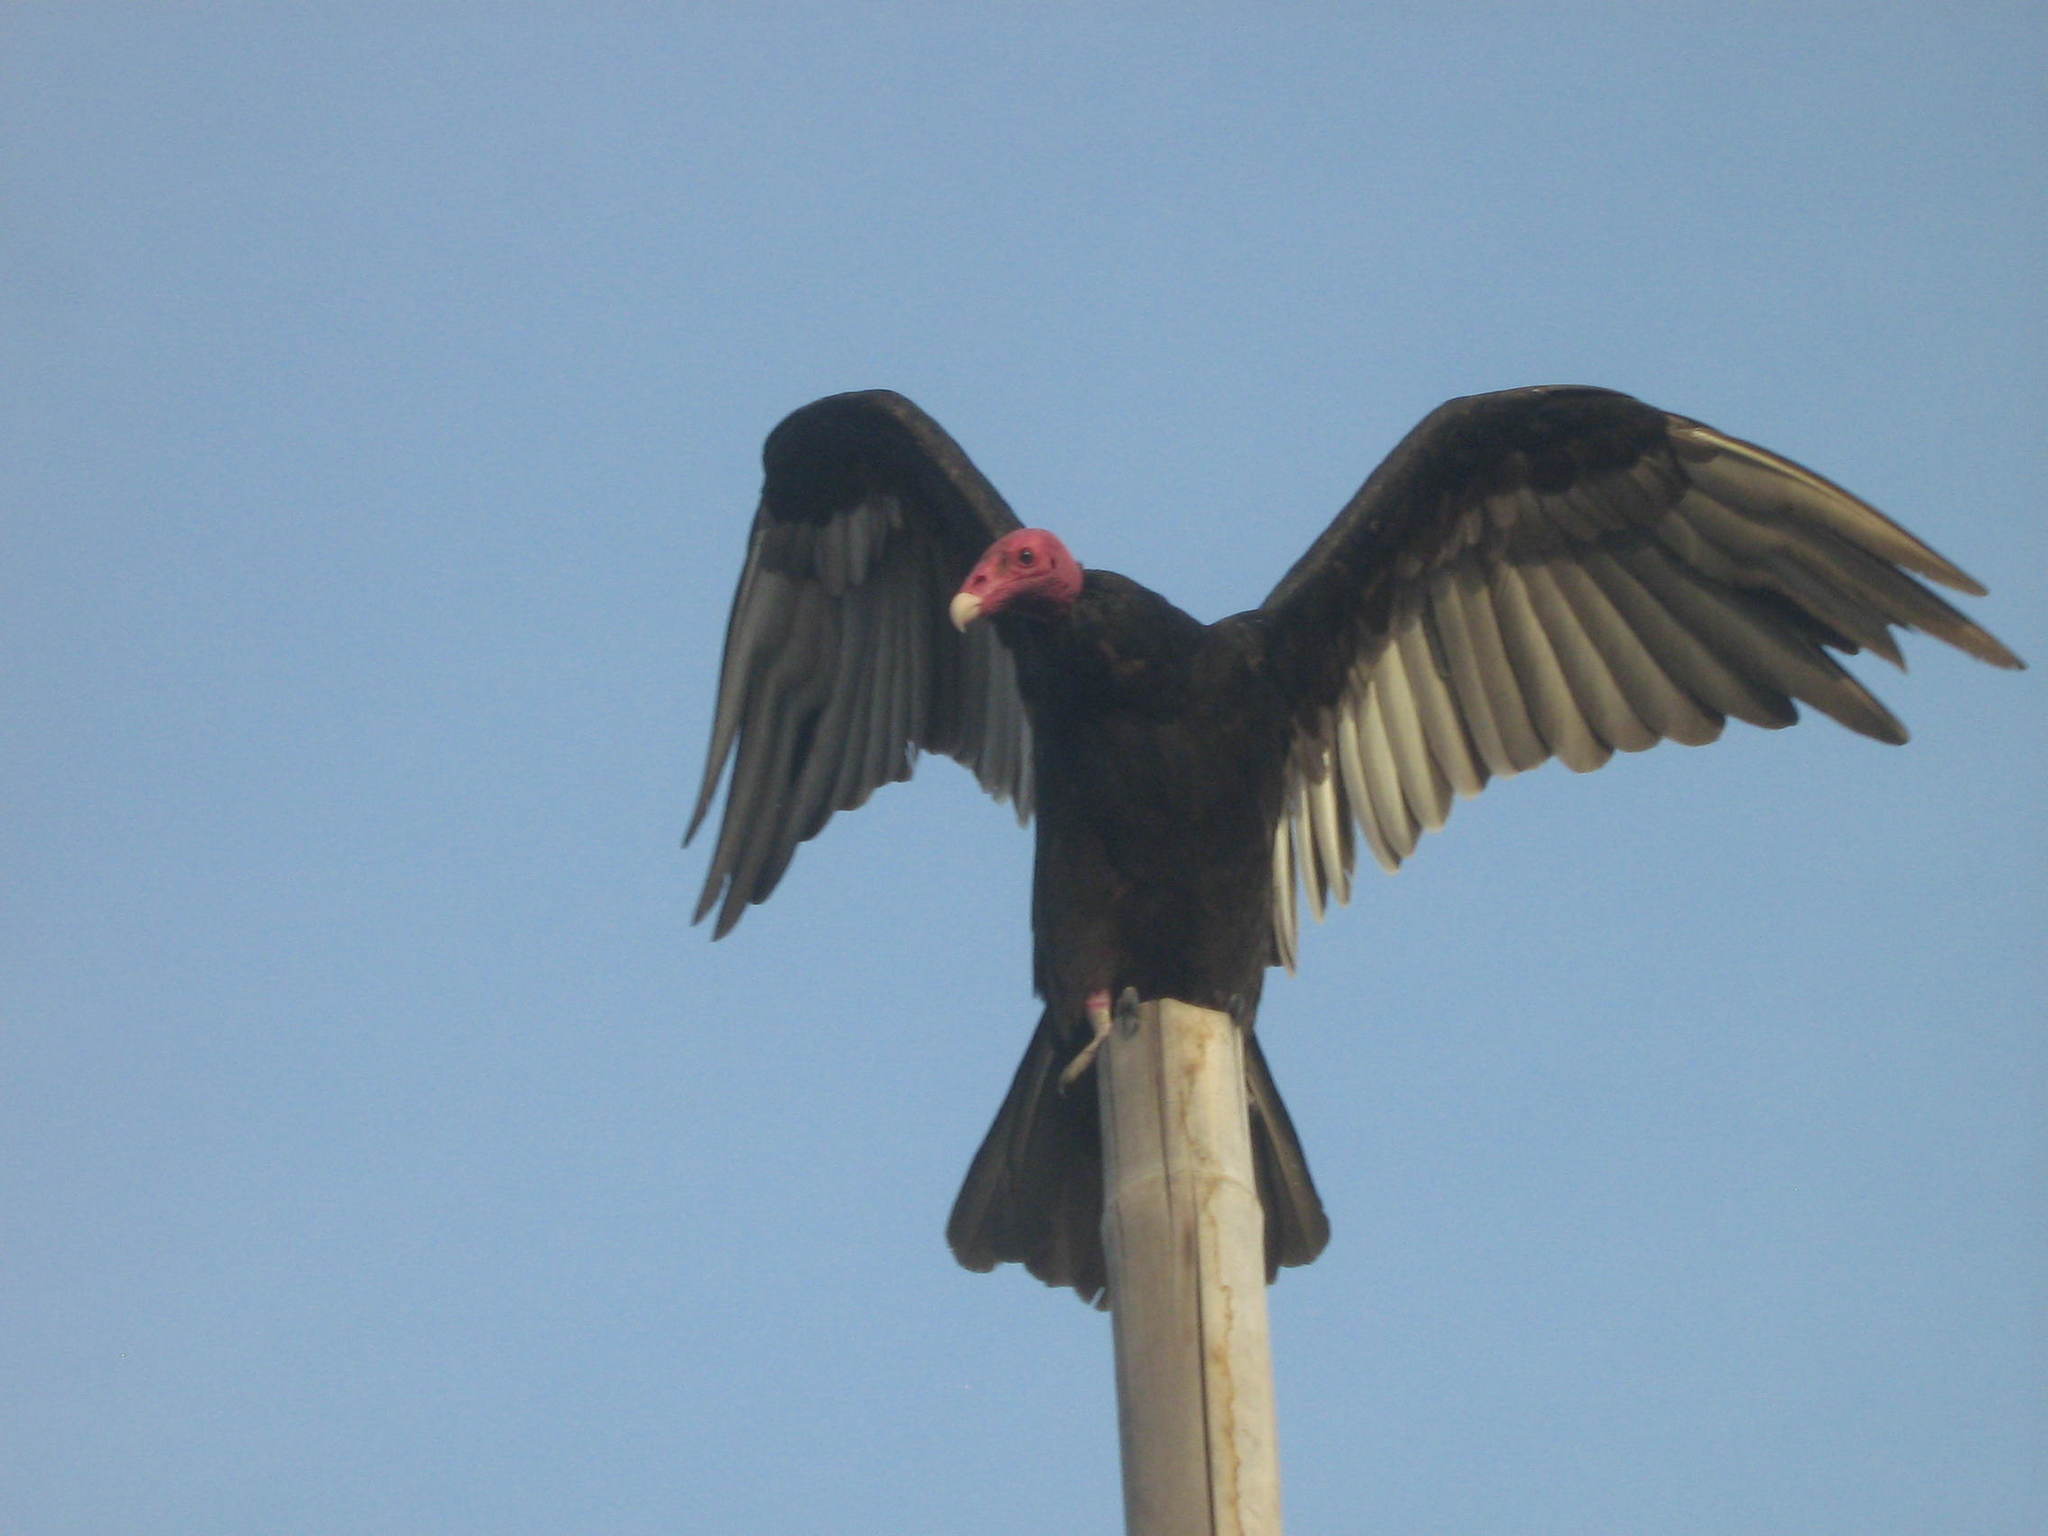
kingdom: Animalia
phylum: Chordata
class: Aves
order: Accipitriformes
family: Cathartidae
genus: Cathartes
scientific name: Cathartes aura
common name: Turkey vulture
